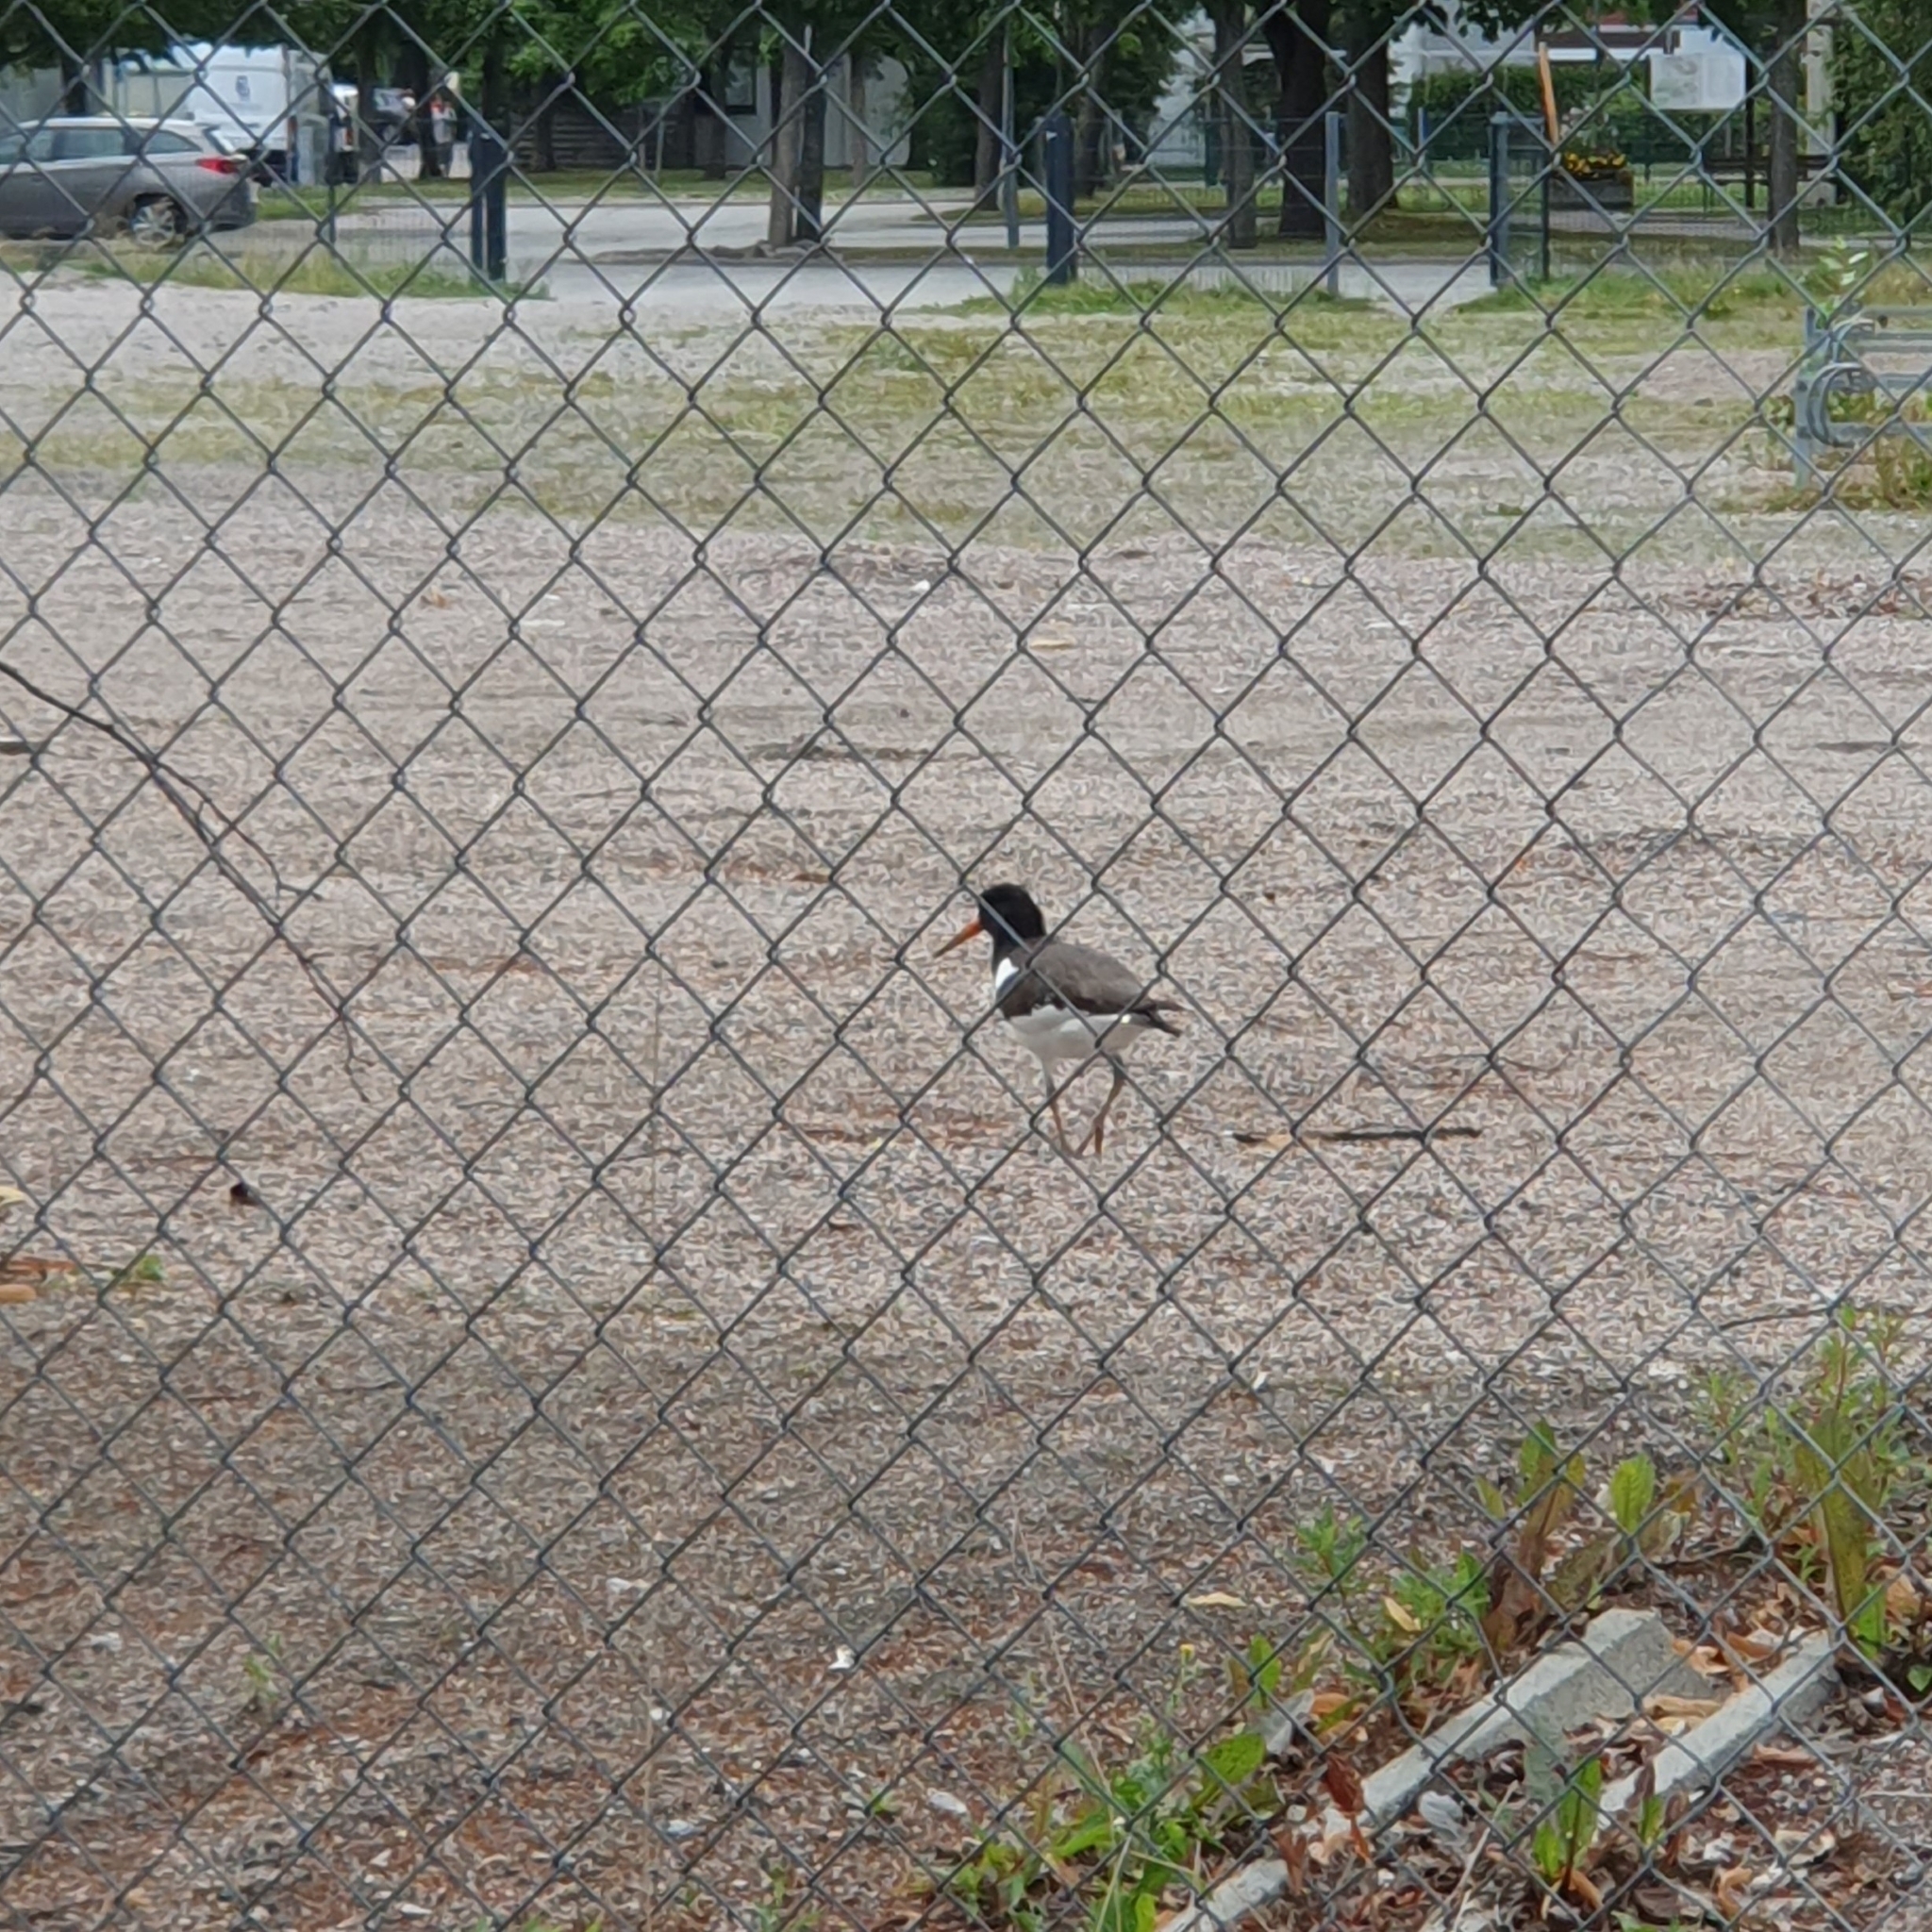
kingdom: Animalia
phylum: Chordata
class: Aves
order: Charadriiformes
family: Haematopodidae
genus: Haematopus
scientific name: Haematopus ostralegus
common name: Eurasian oystercatcher
